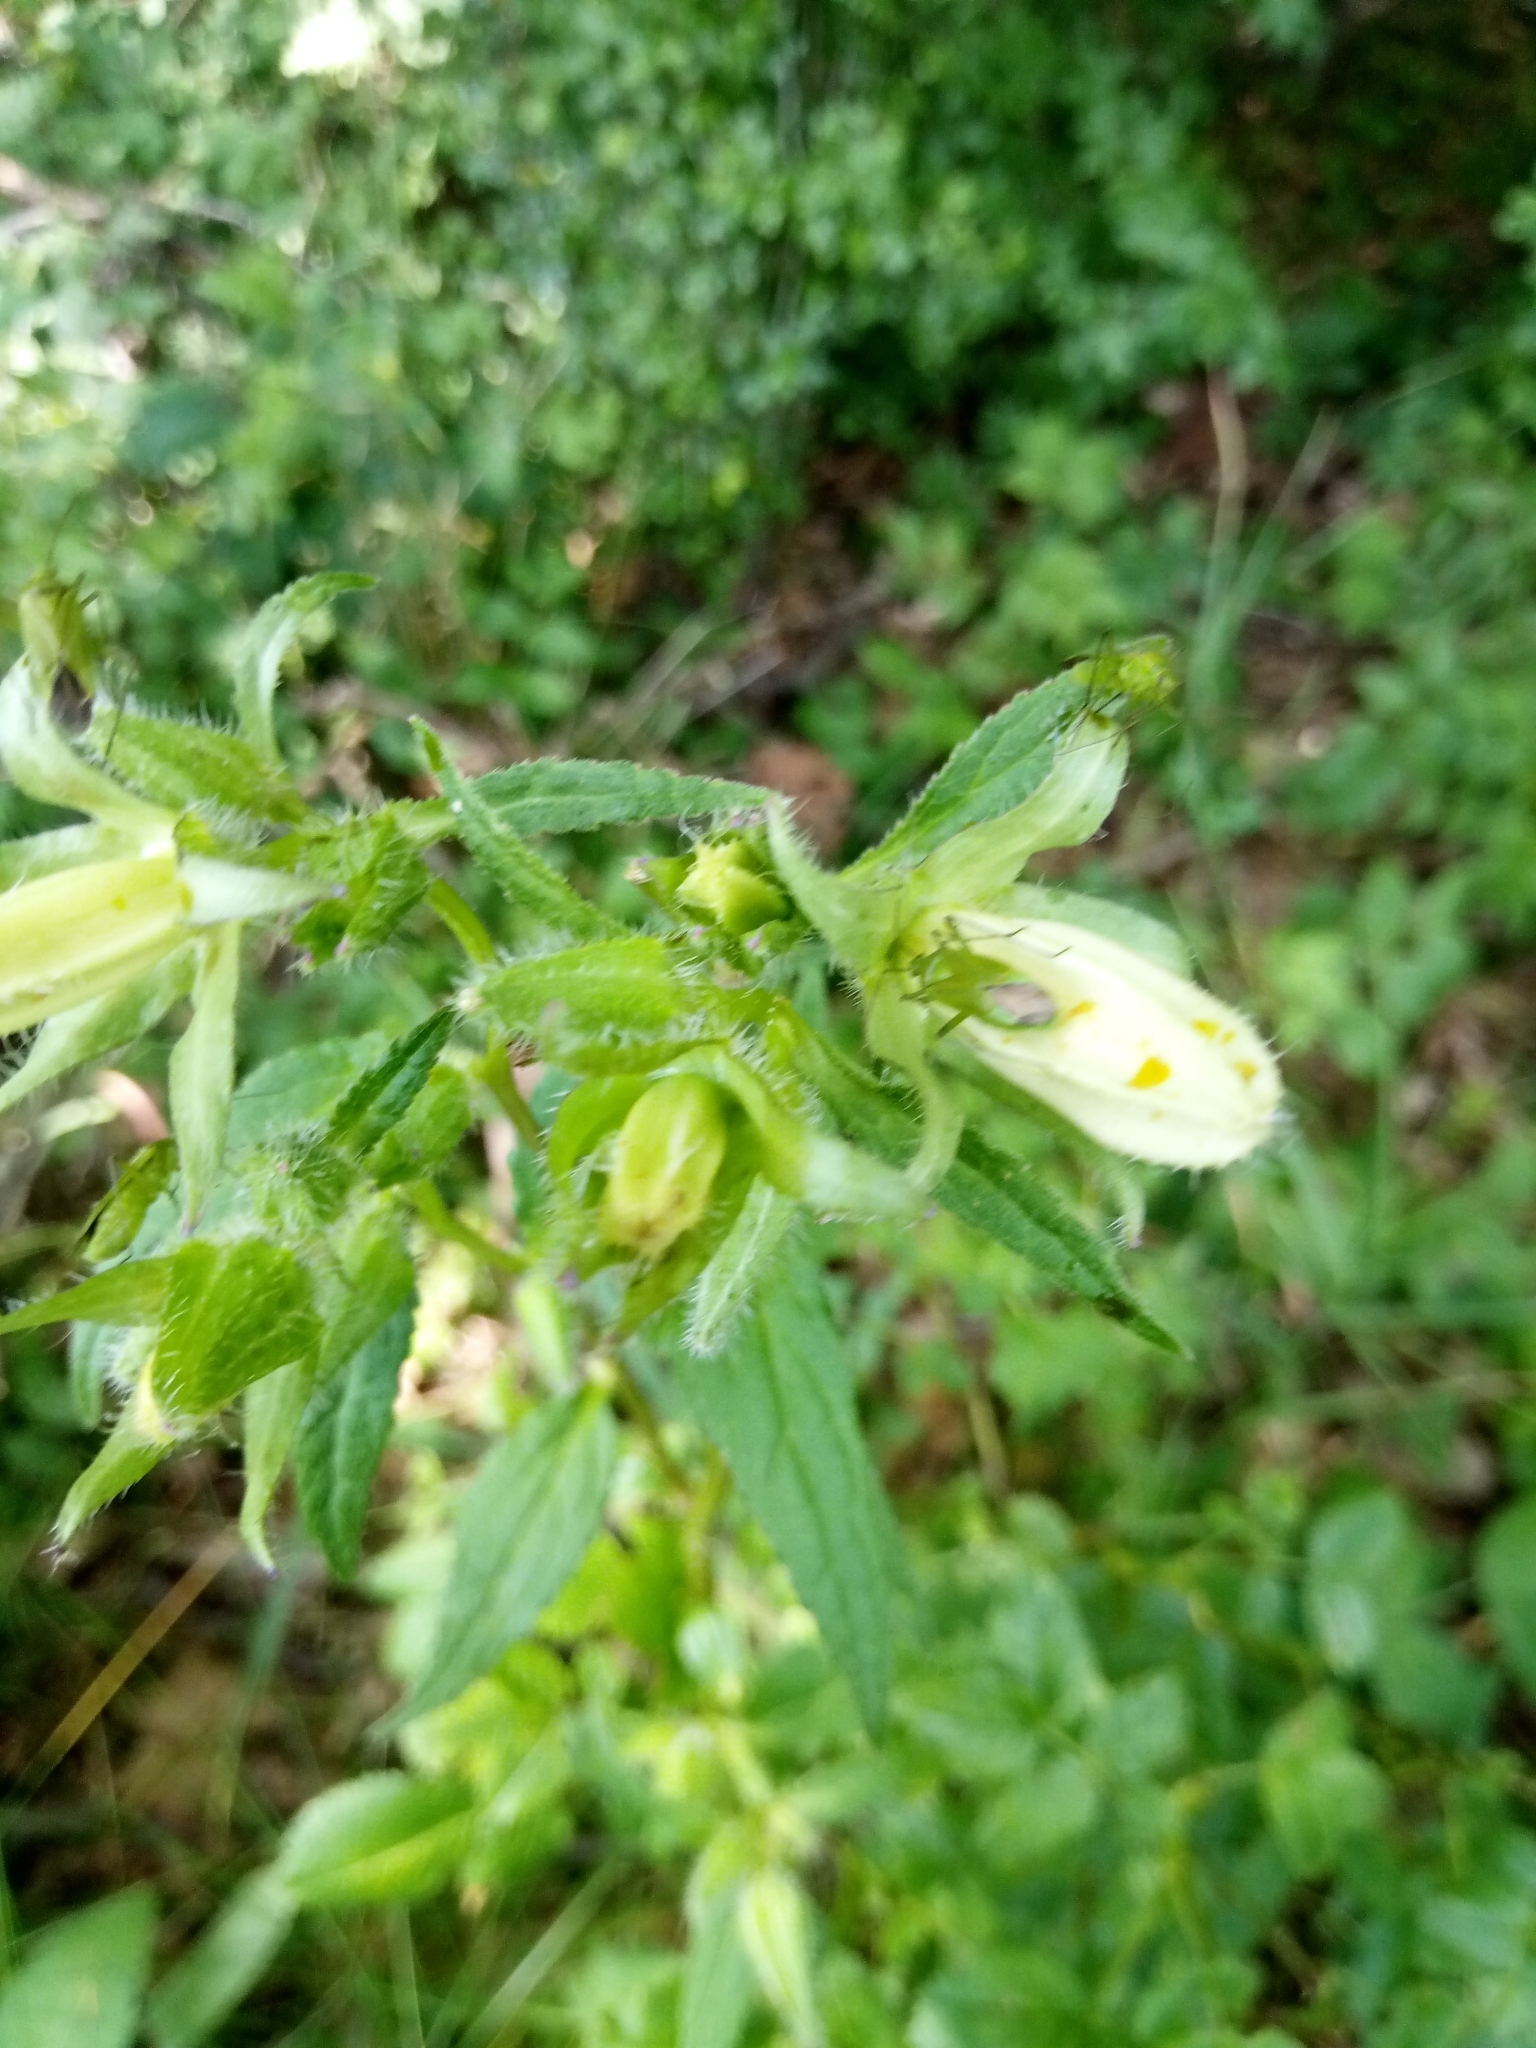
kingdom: Plantae
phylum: Tracheophyta
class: Magnoliopsida
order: Asterales
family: Campanulaceae
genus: Campanula
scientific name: Campanula trachelium
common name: Nettle-leaved bellflower
